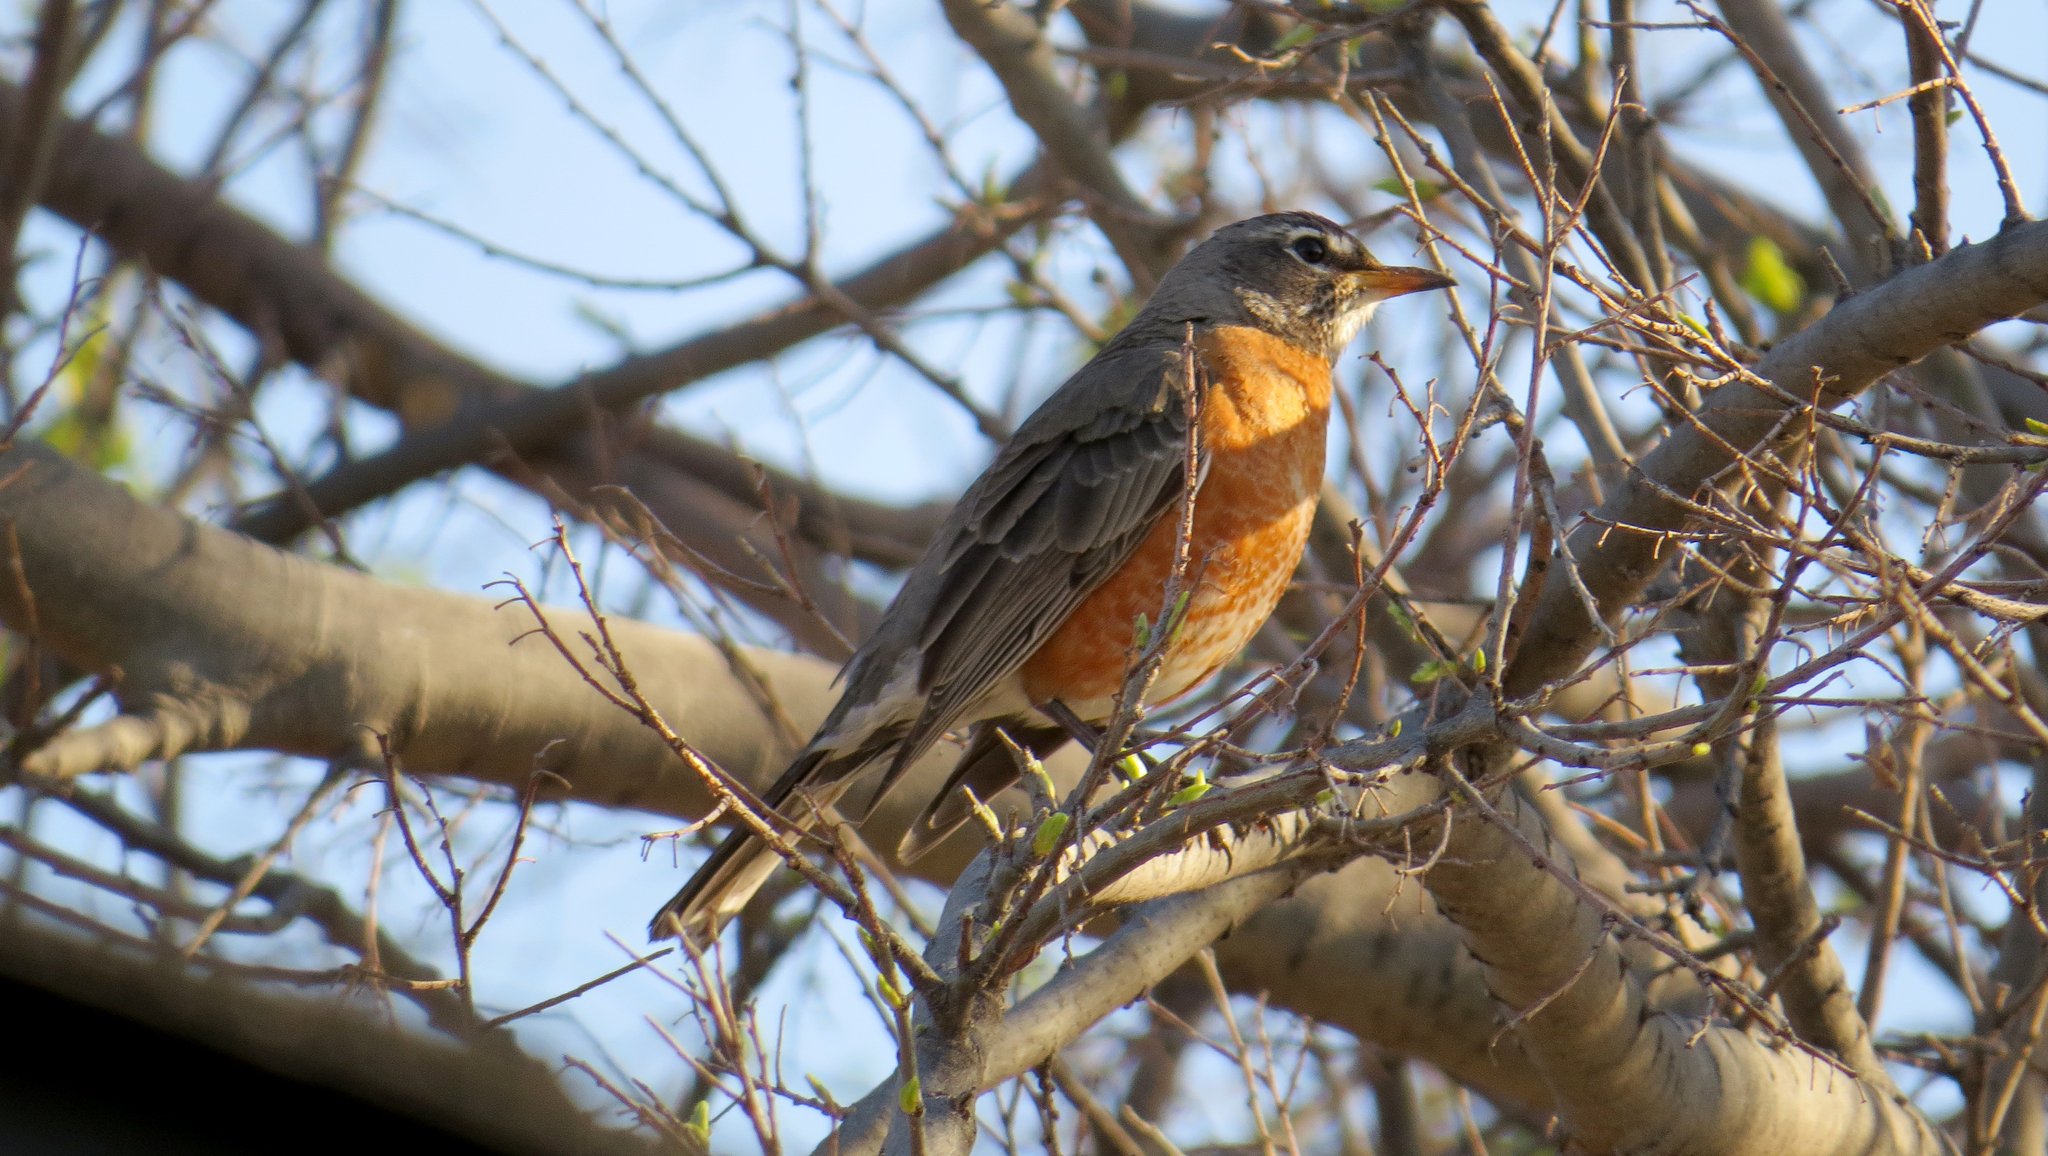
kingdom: Animalia
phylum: Chordata
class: Aves
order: Passeriformes
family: Turdidae
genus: Turdus
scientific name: Turdus migratorius
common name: American robin
